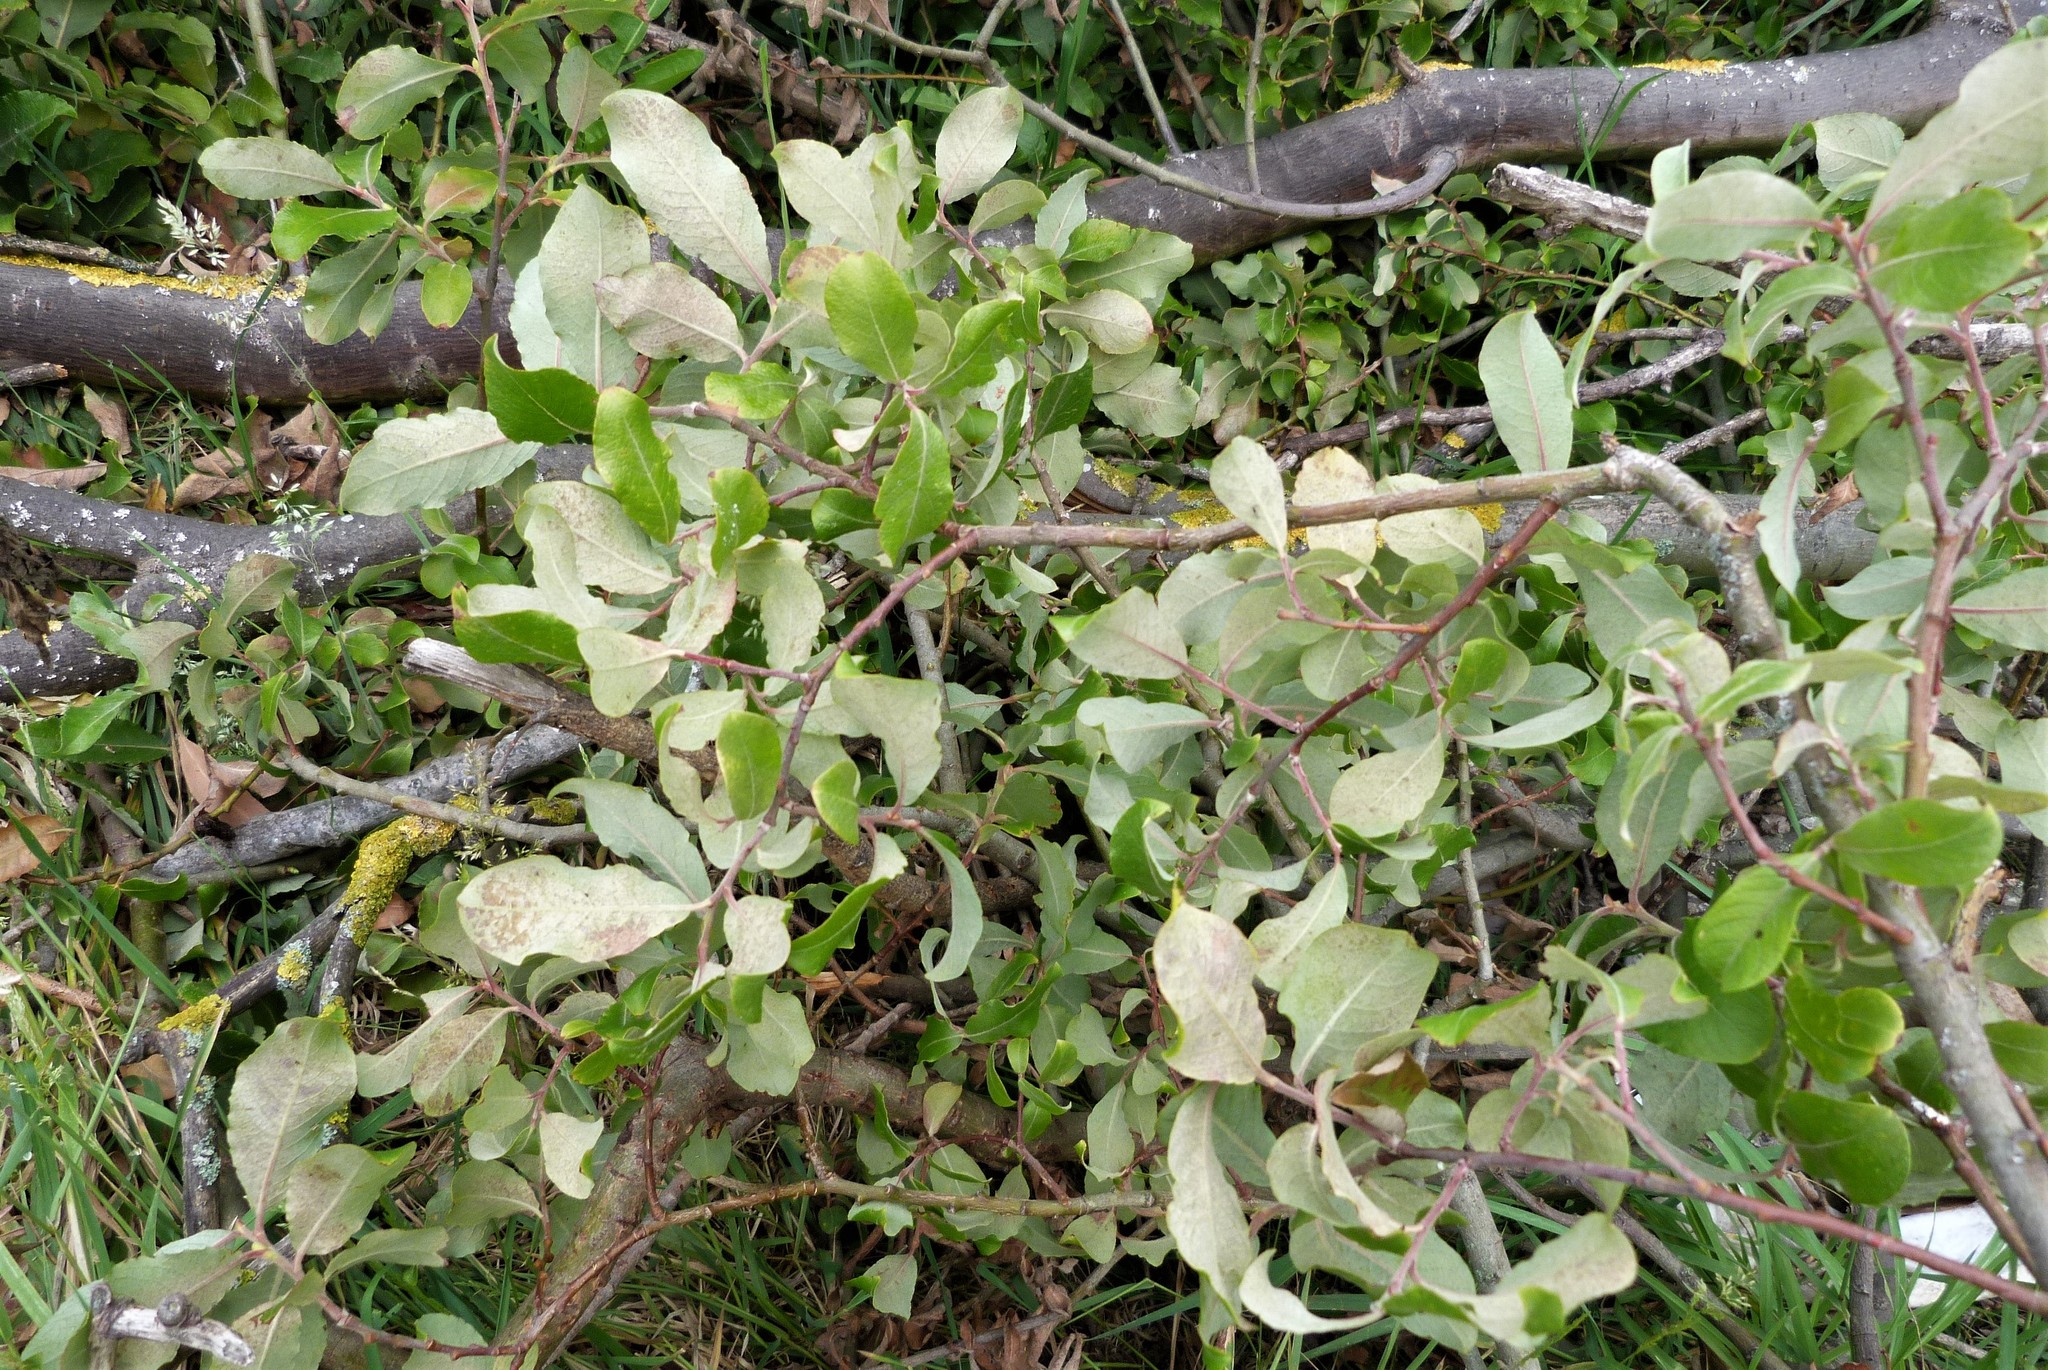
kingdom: Plantae
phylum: Tracheophyta
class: Magnoliopsida
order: Malpighiales
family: Salicaceae
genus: Salix
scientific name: Salix cinerea
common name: Common sallow
